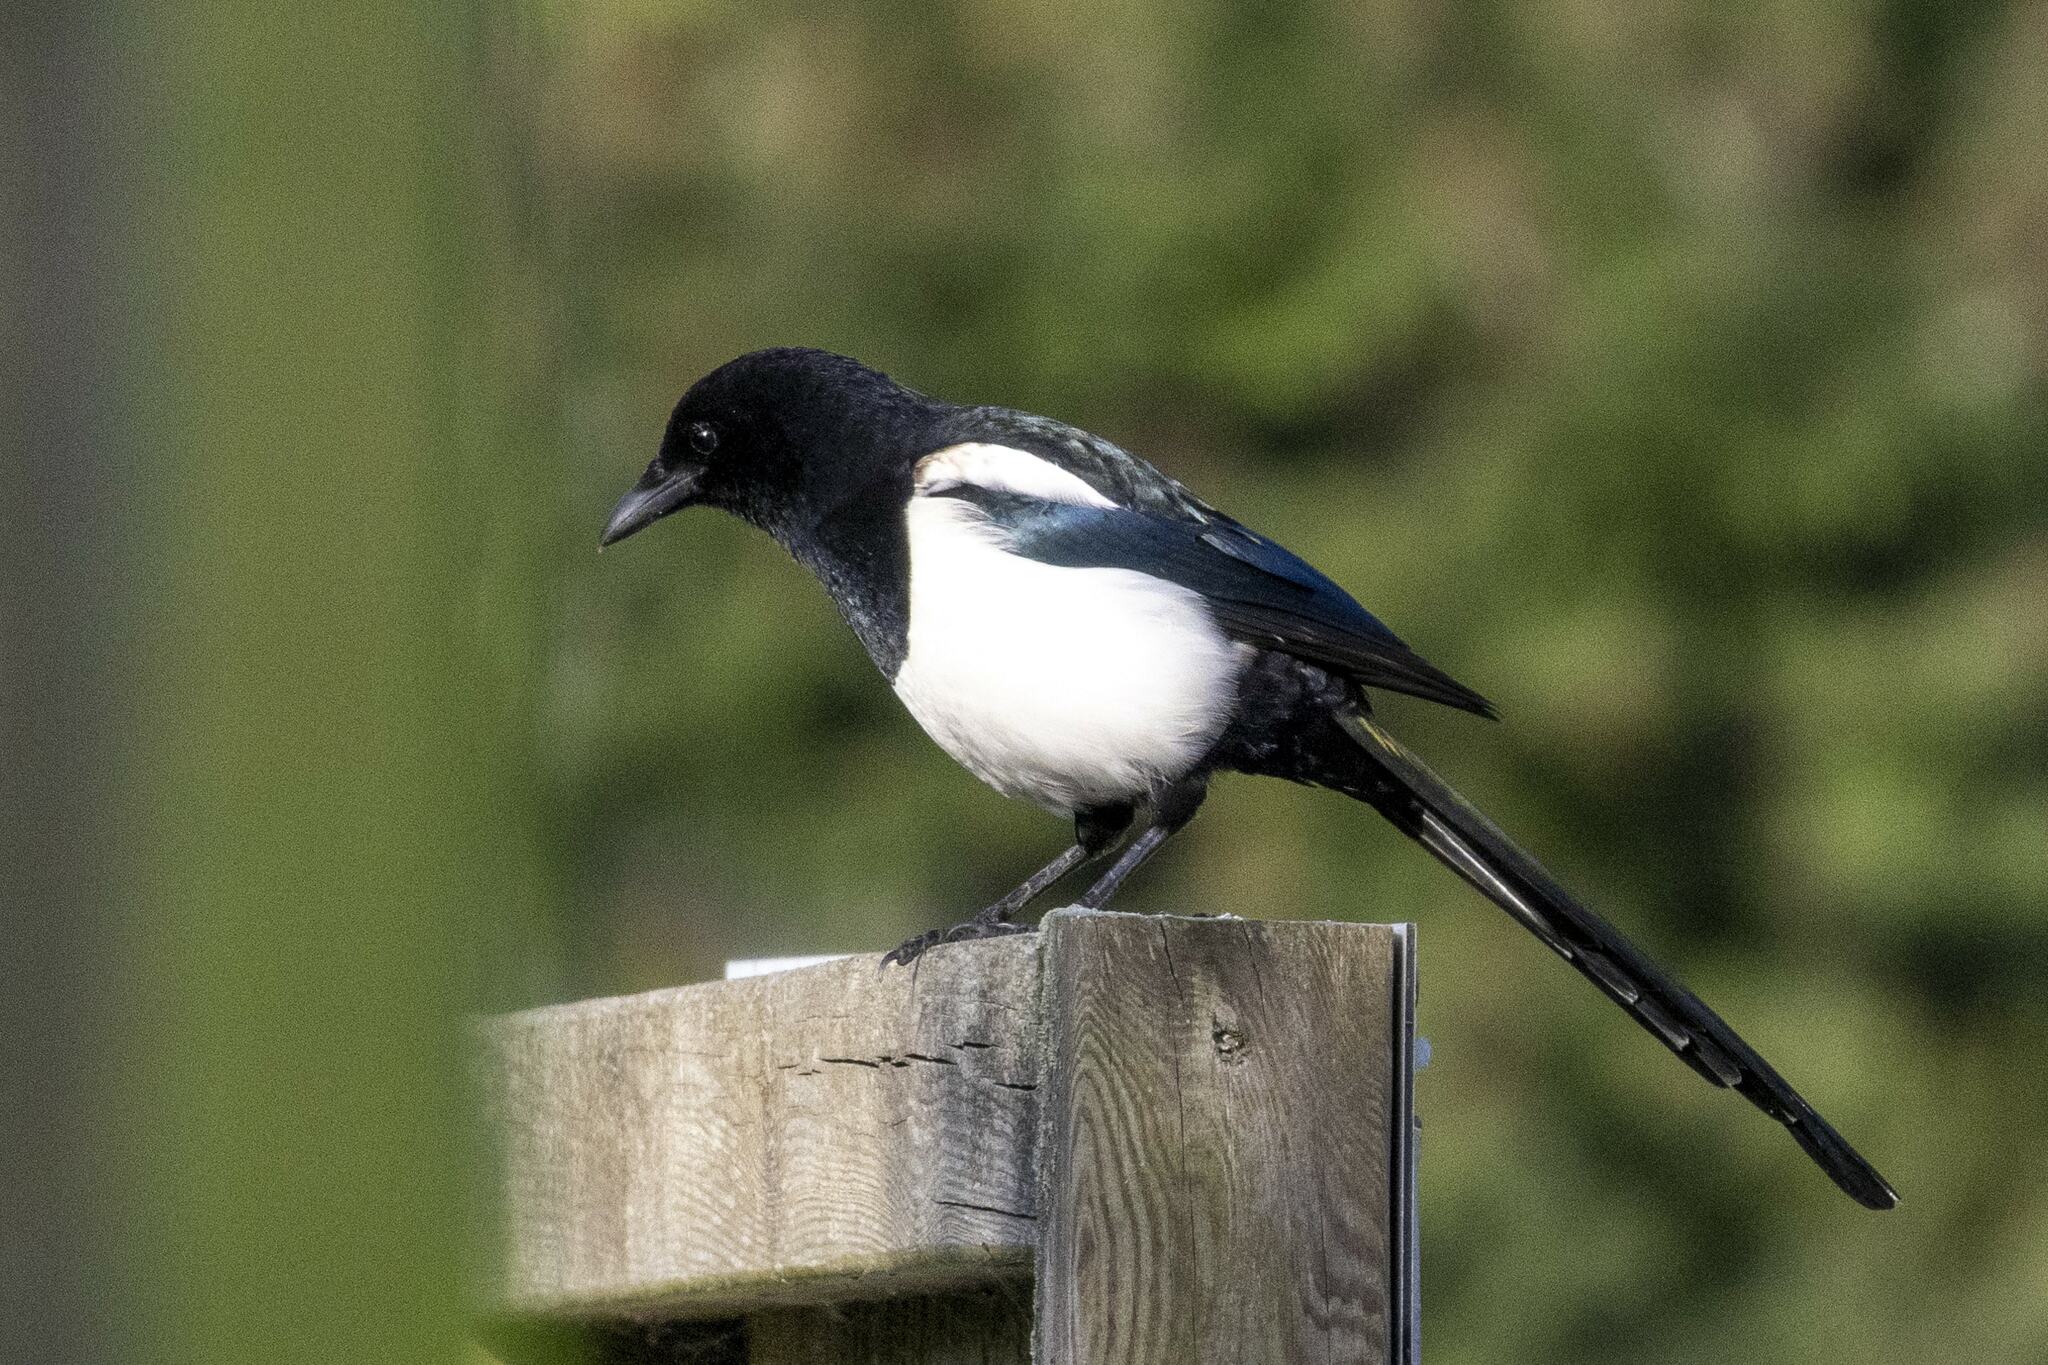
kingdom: Animalia
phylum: Chordata
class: Aves
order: Passeriformes
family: Corvidae
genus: Pica
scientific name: Pica pica
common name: Eurasian magpie
